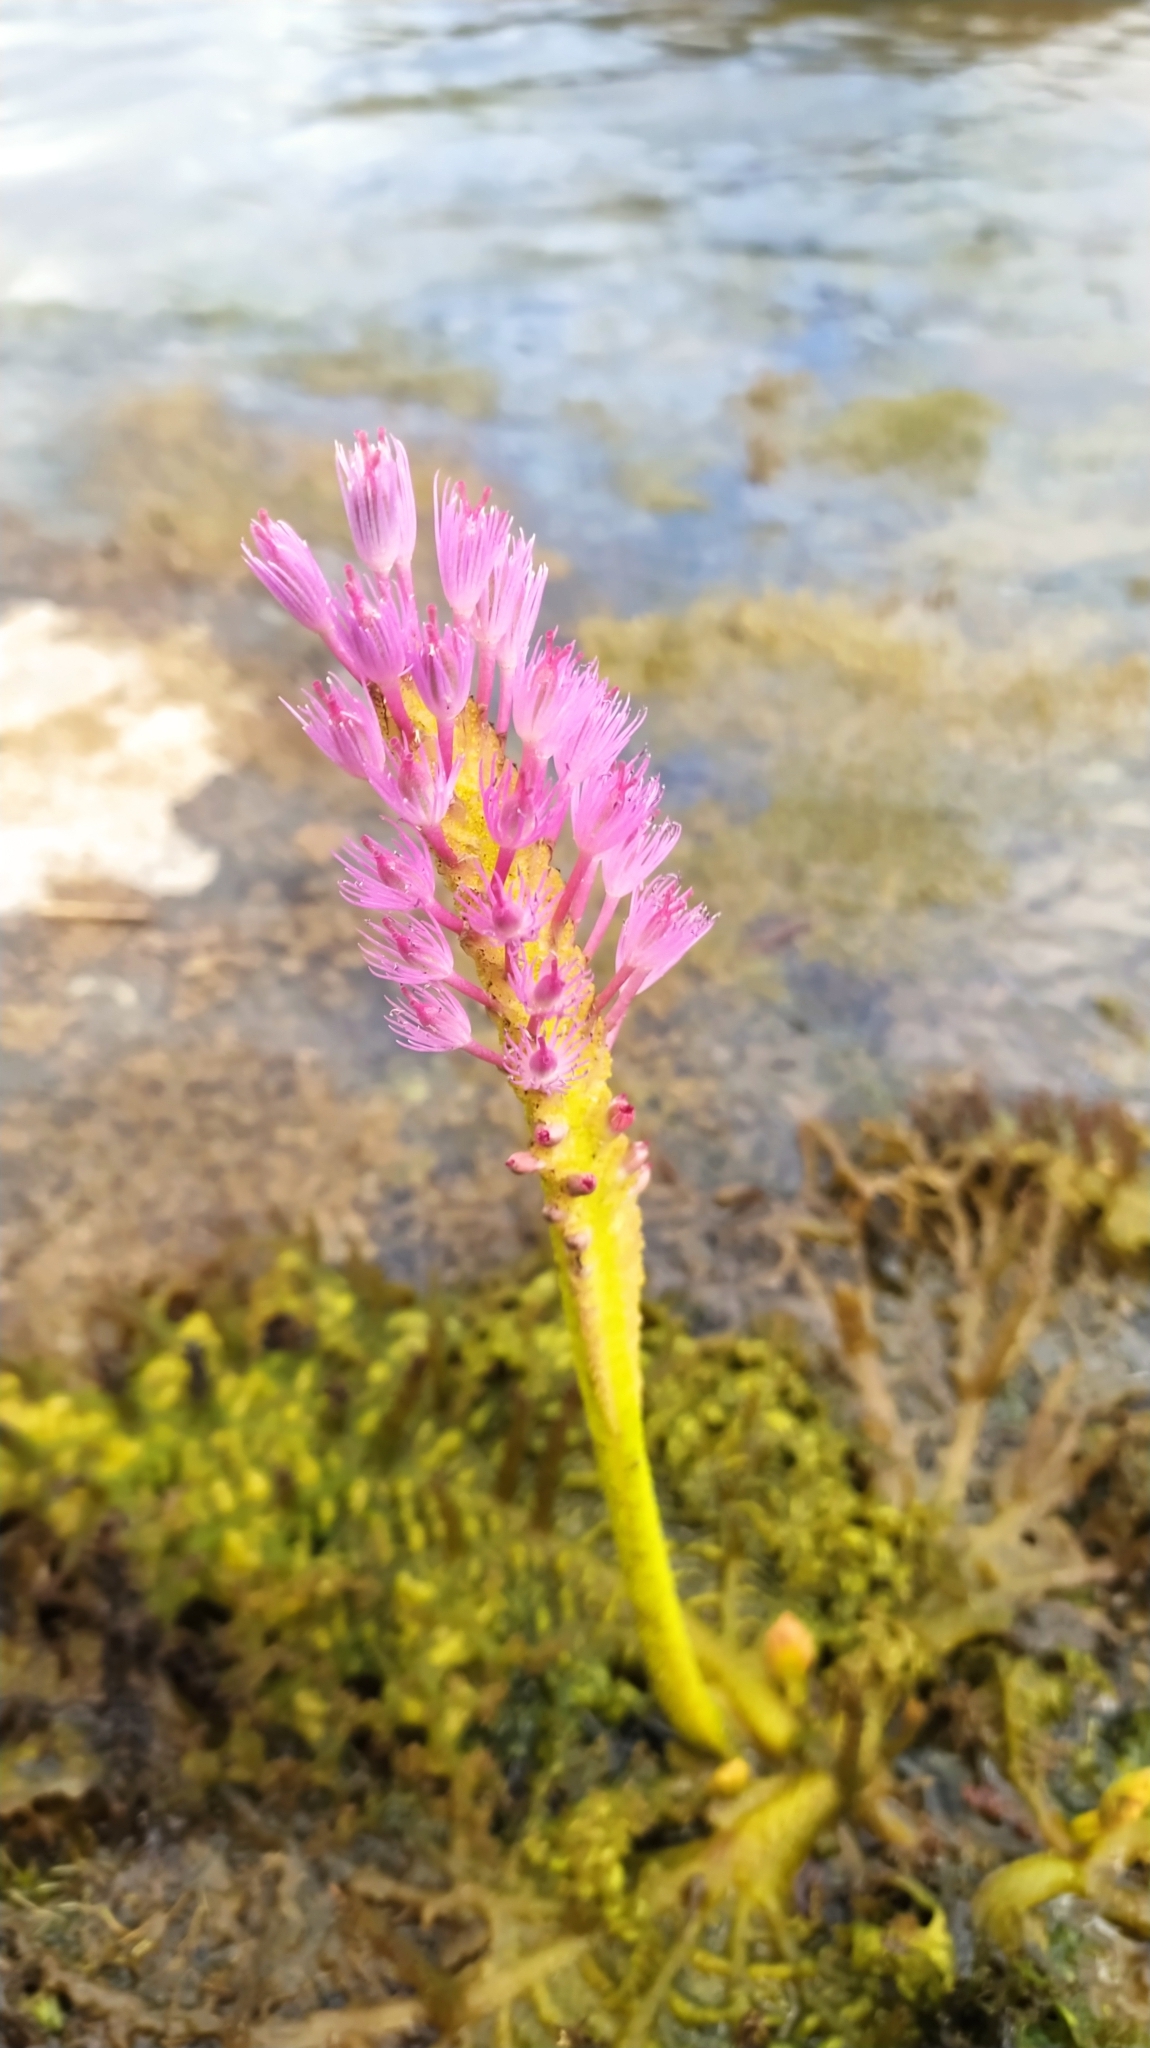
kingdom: Plantae
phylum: Tracheophyta
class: Magnoliopsida
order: Malpighiales
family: Podostemaceae
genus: Mourera
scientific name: Mourera fluviatilis
